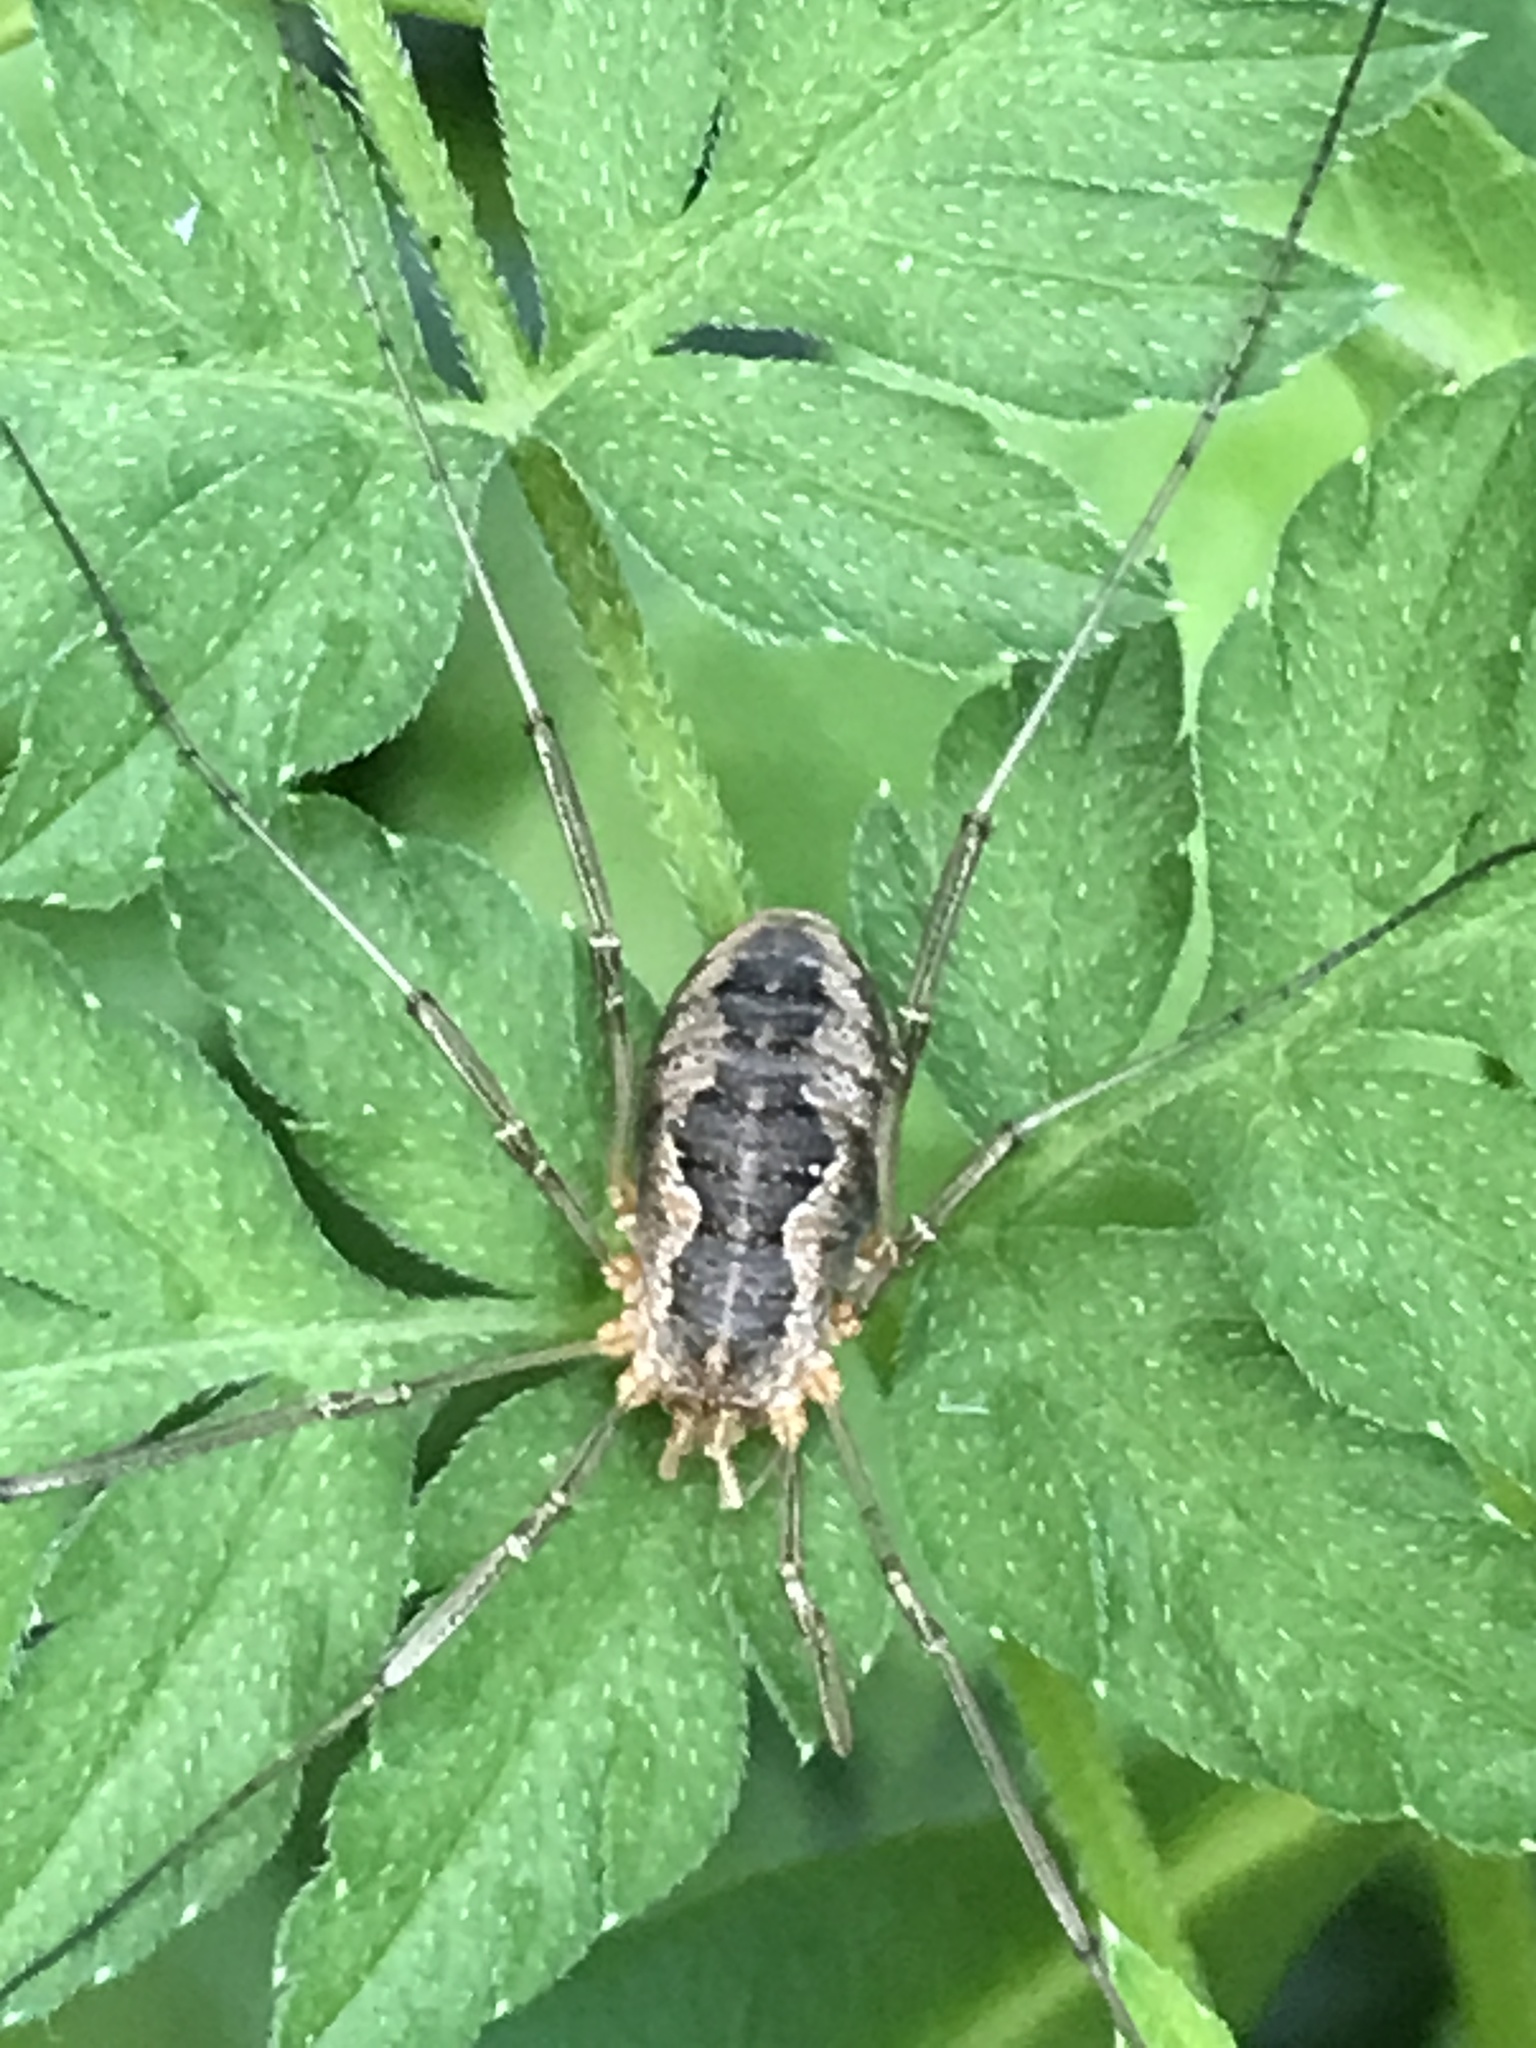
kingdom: Animalia
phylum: Arthropoda
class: Arachnida
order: Opiliones
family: Phalangiidae
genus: Phalangium
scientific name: Phalangium opilio
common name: Daddy longleg
